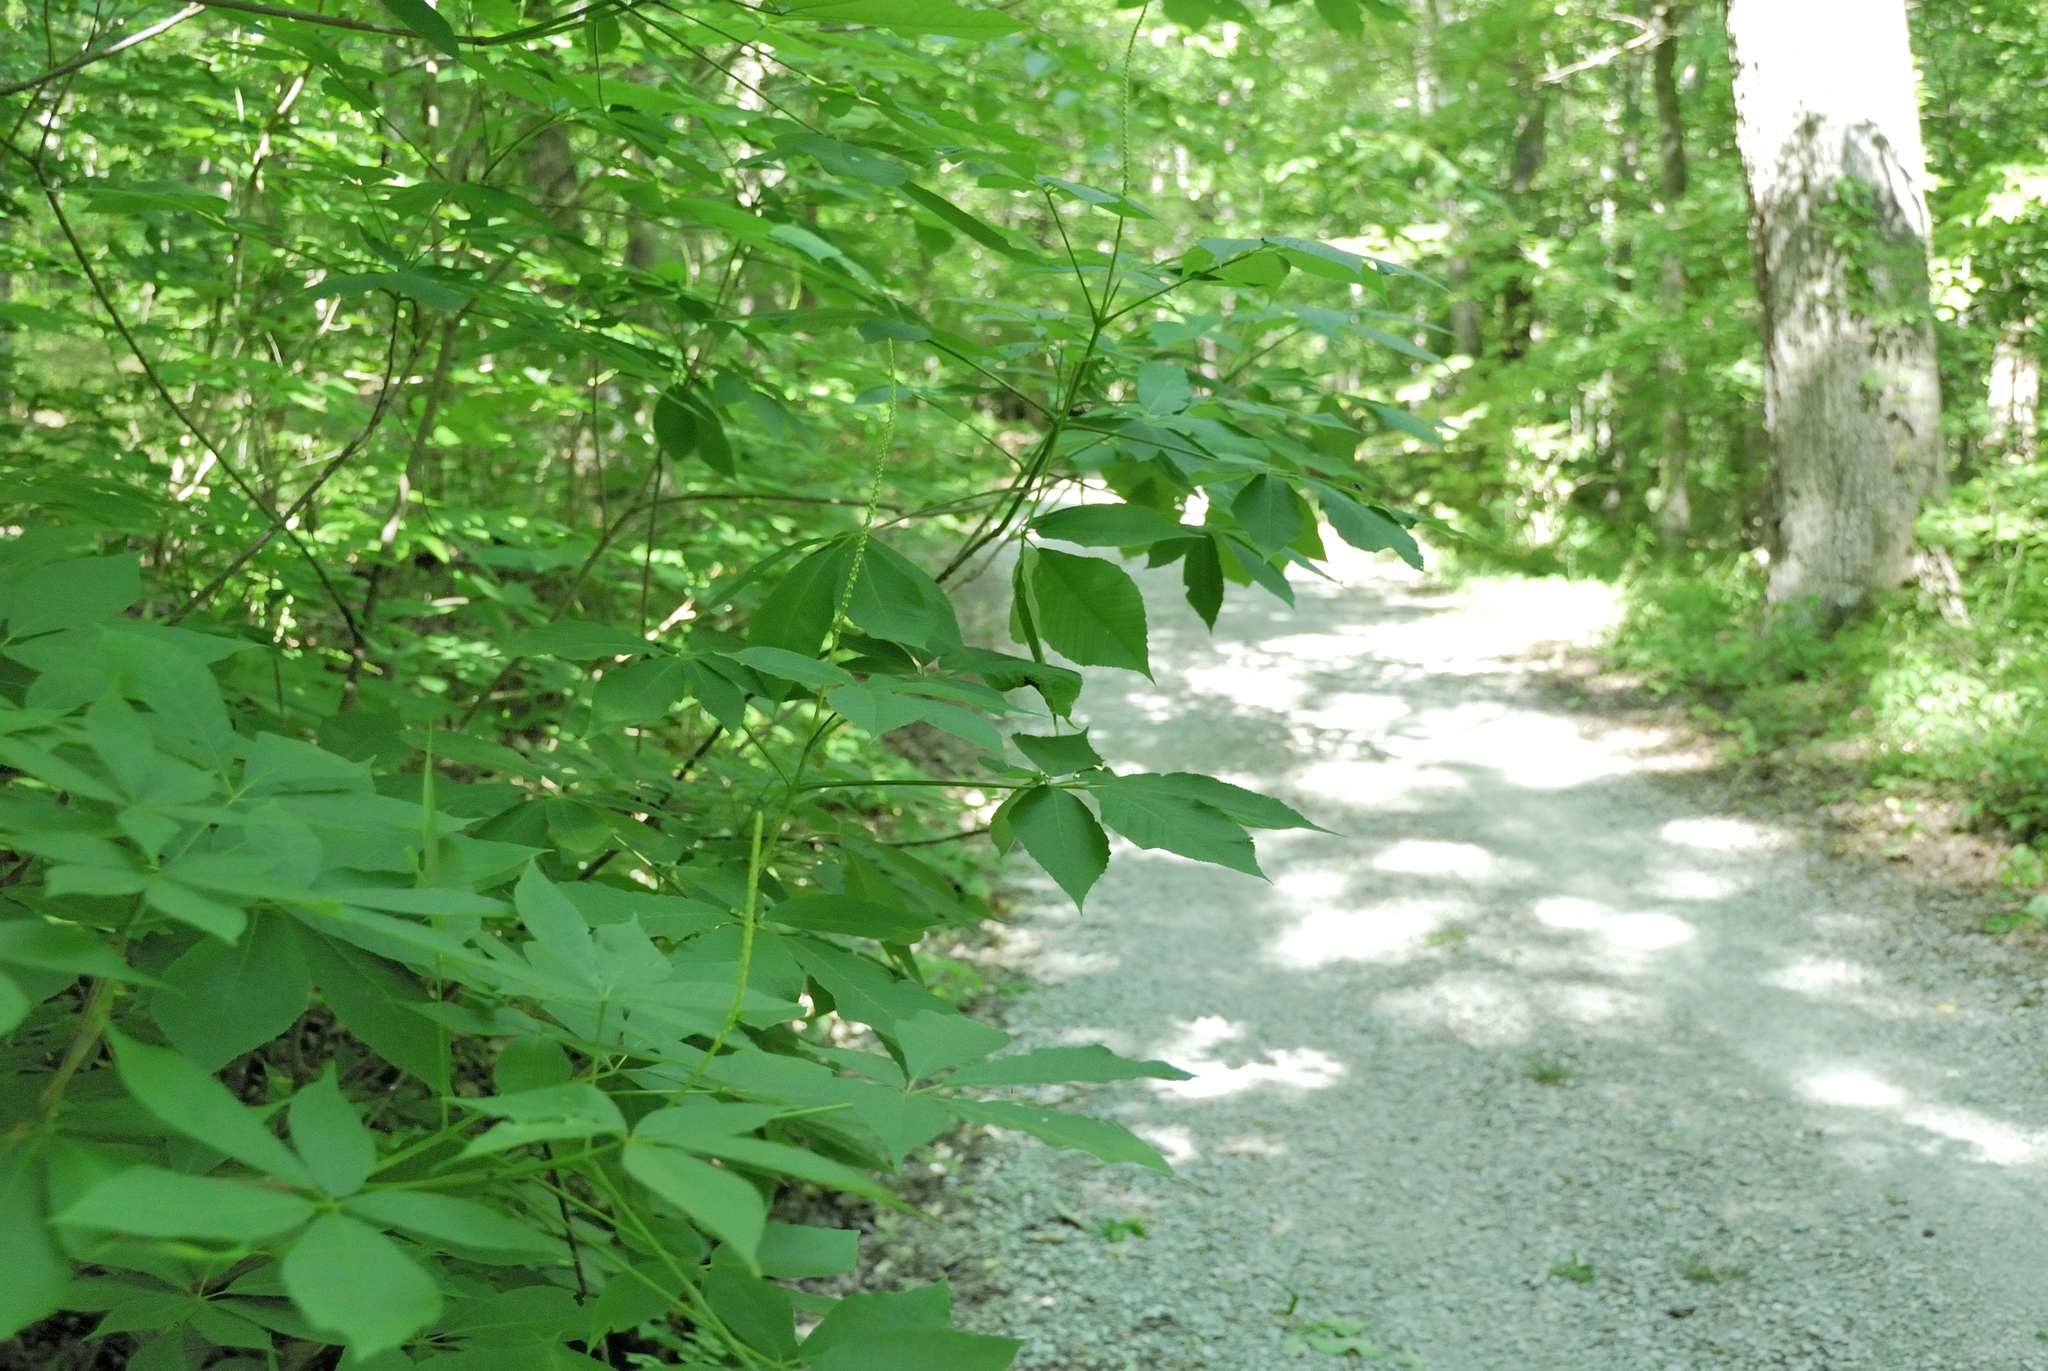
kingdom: Plantae
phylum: Tracheophyta
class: Magnoliopsida
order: Sapindales
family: Sapindaceae
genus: Aesculus
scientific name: Aesculus parviflora
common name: Bottlebrush buckeye
